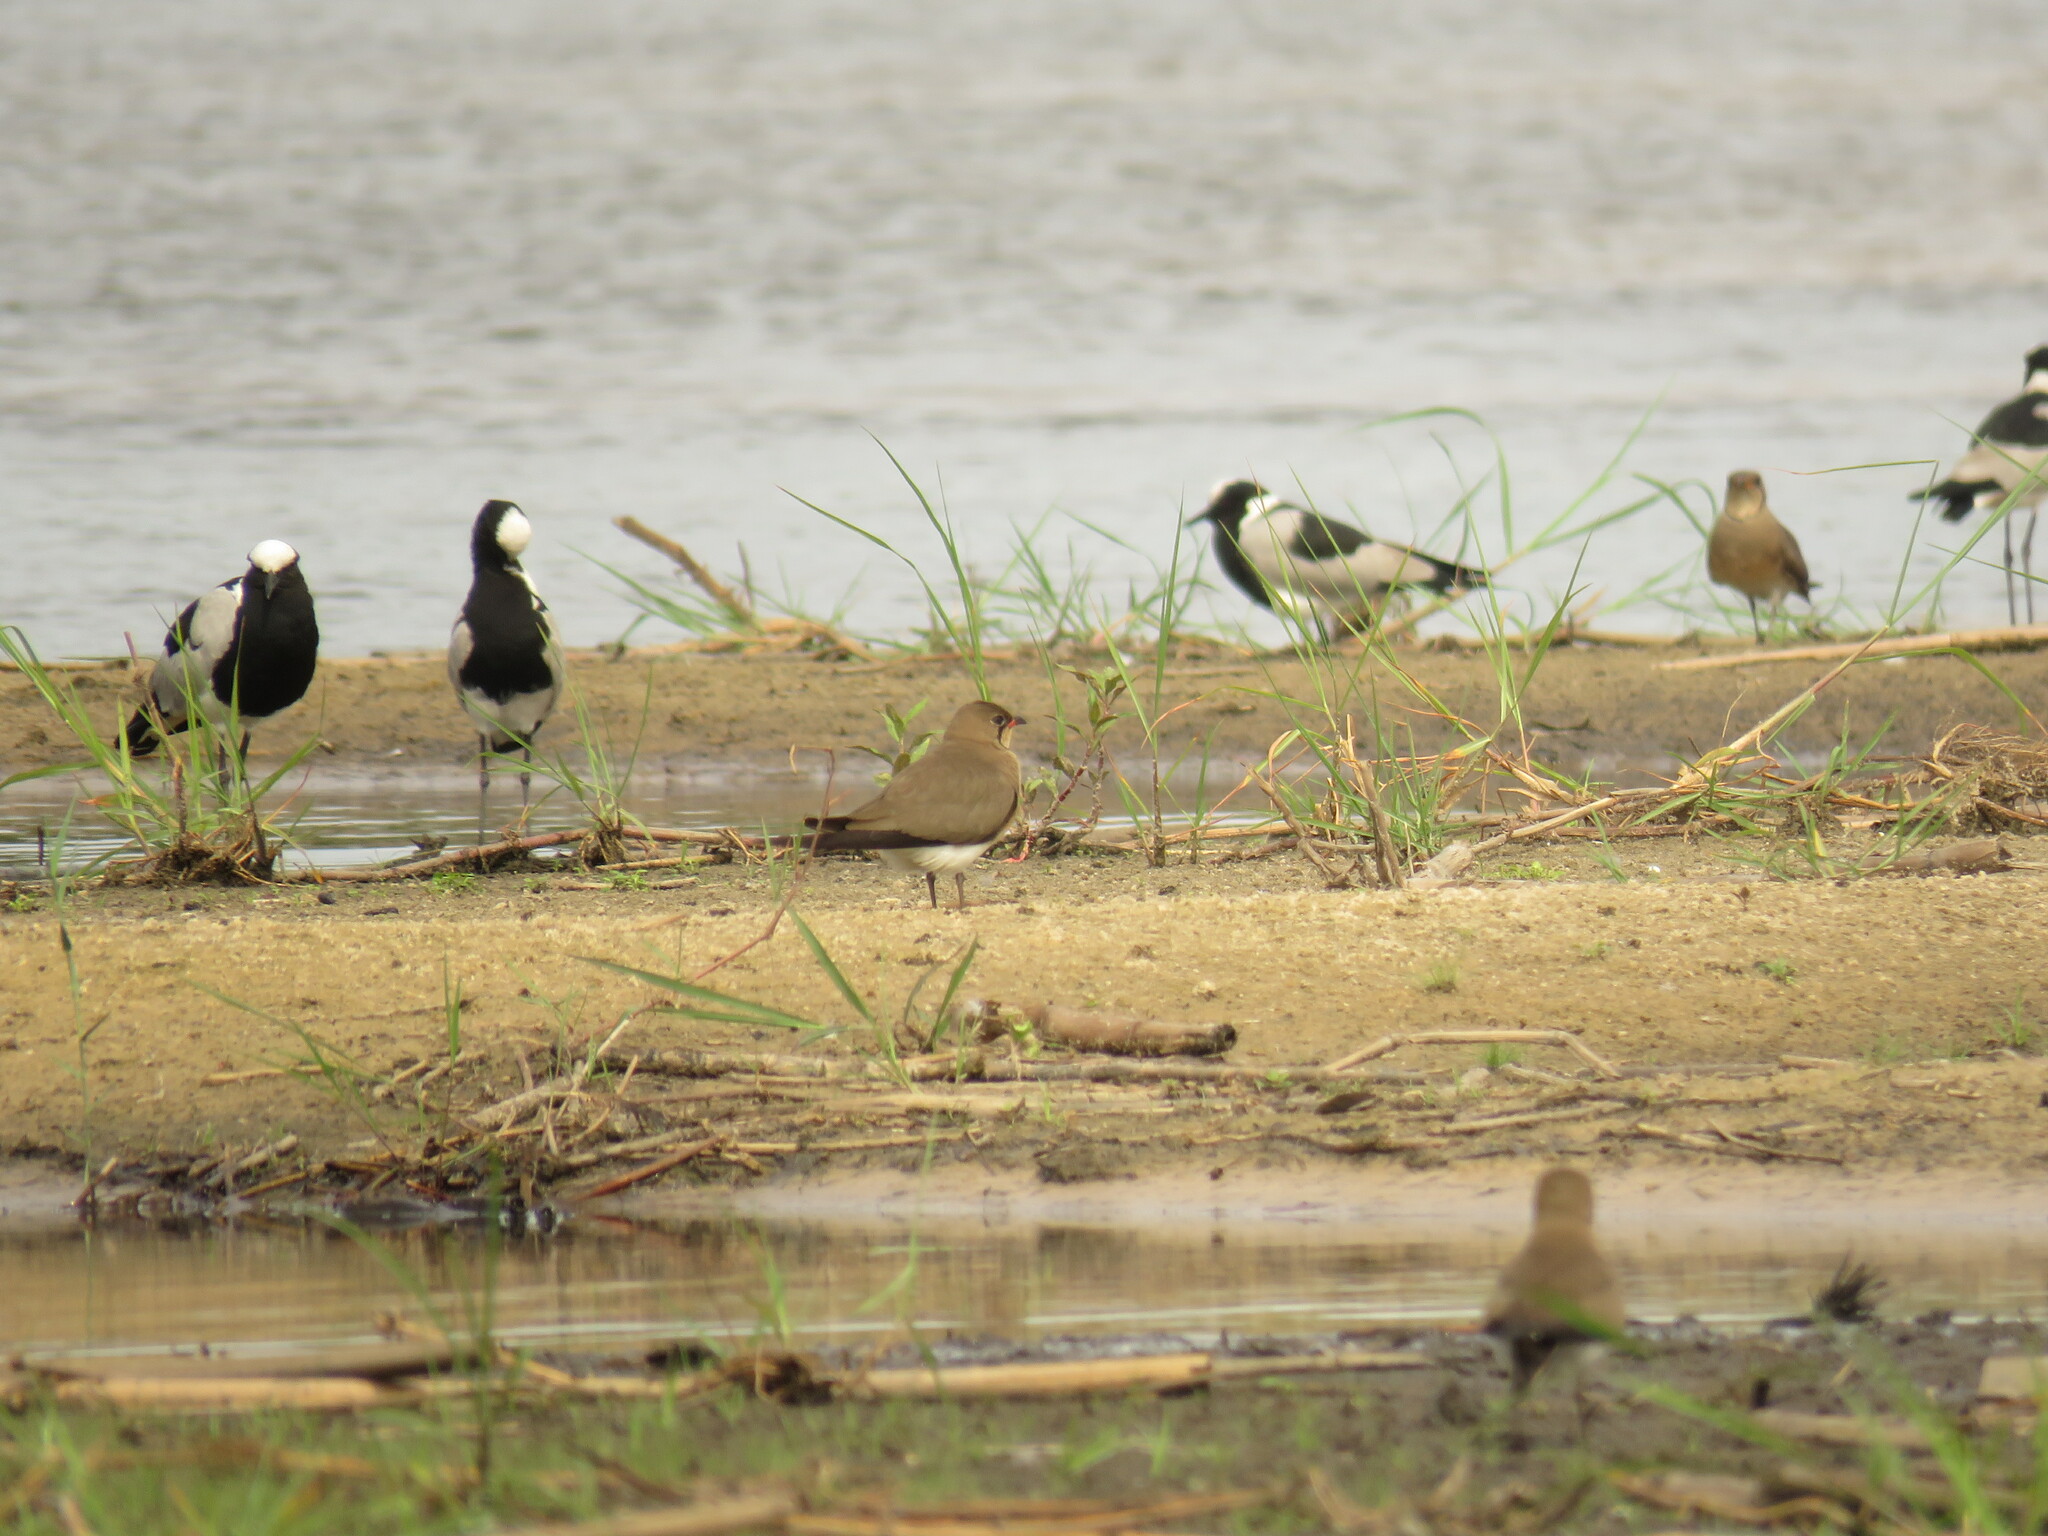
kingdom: Animalia
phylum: Chordata
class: Aves
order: Charadriiformes
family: Glareolidae
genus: Glareola
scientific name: Glareola pratincola
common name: Collared pratincole
